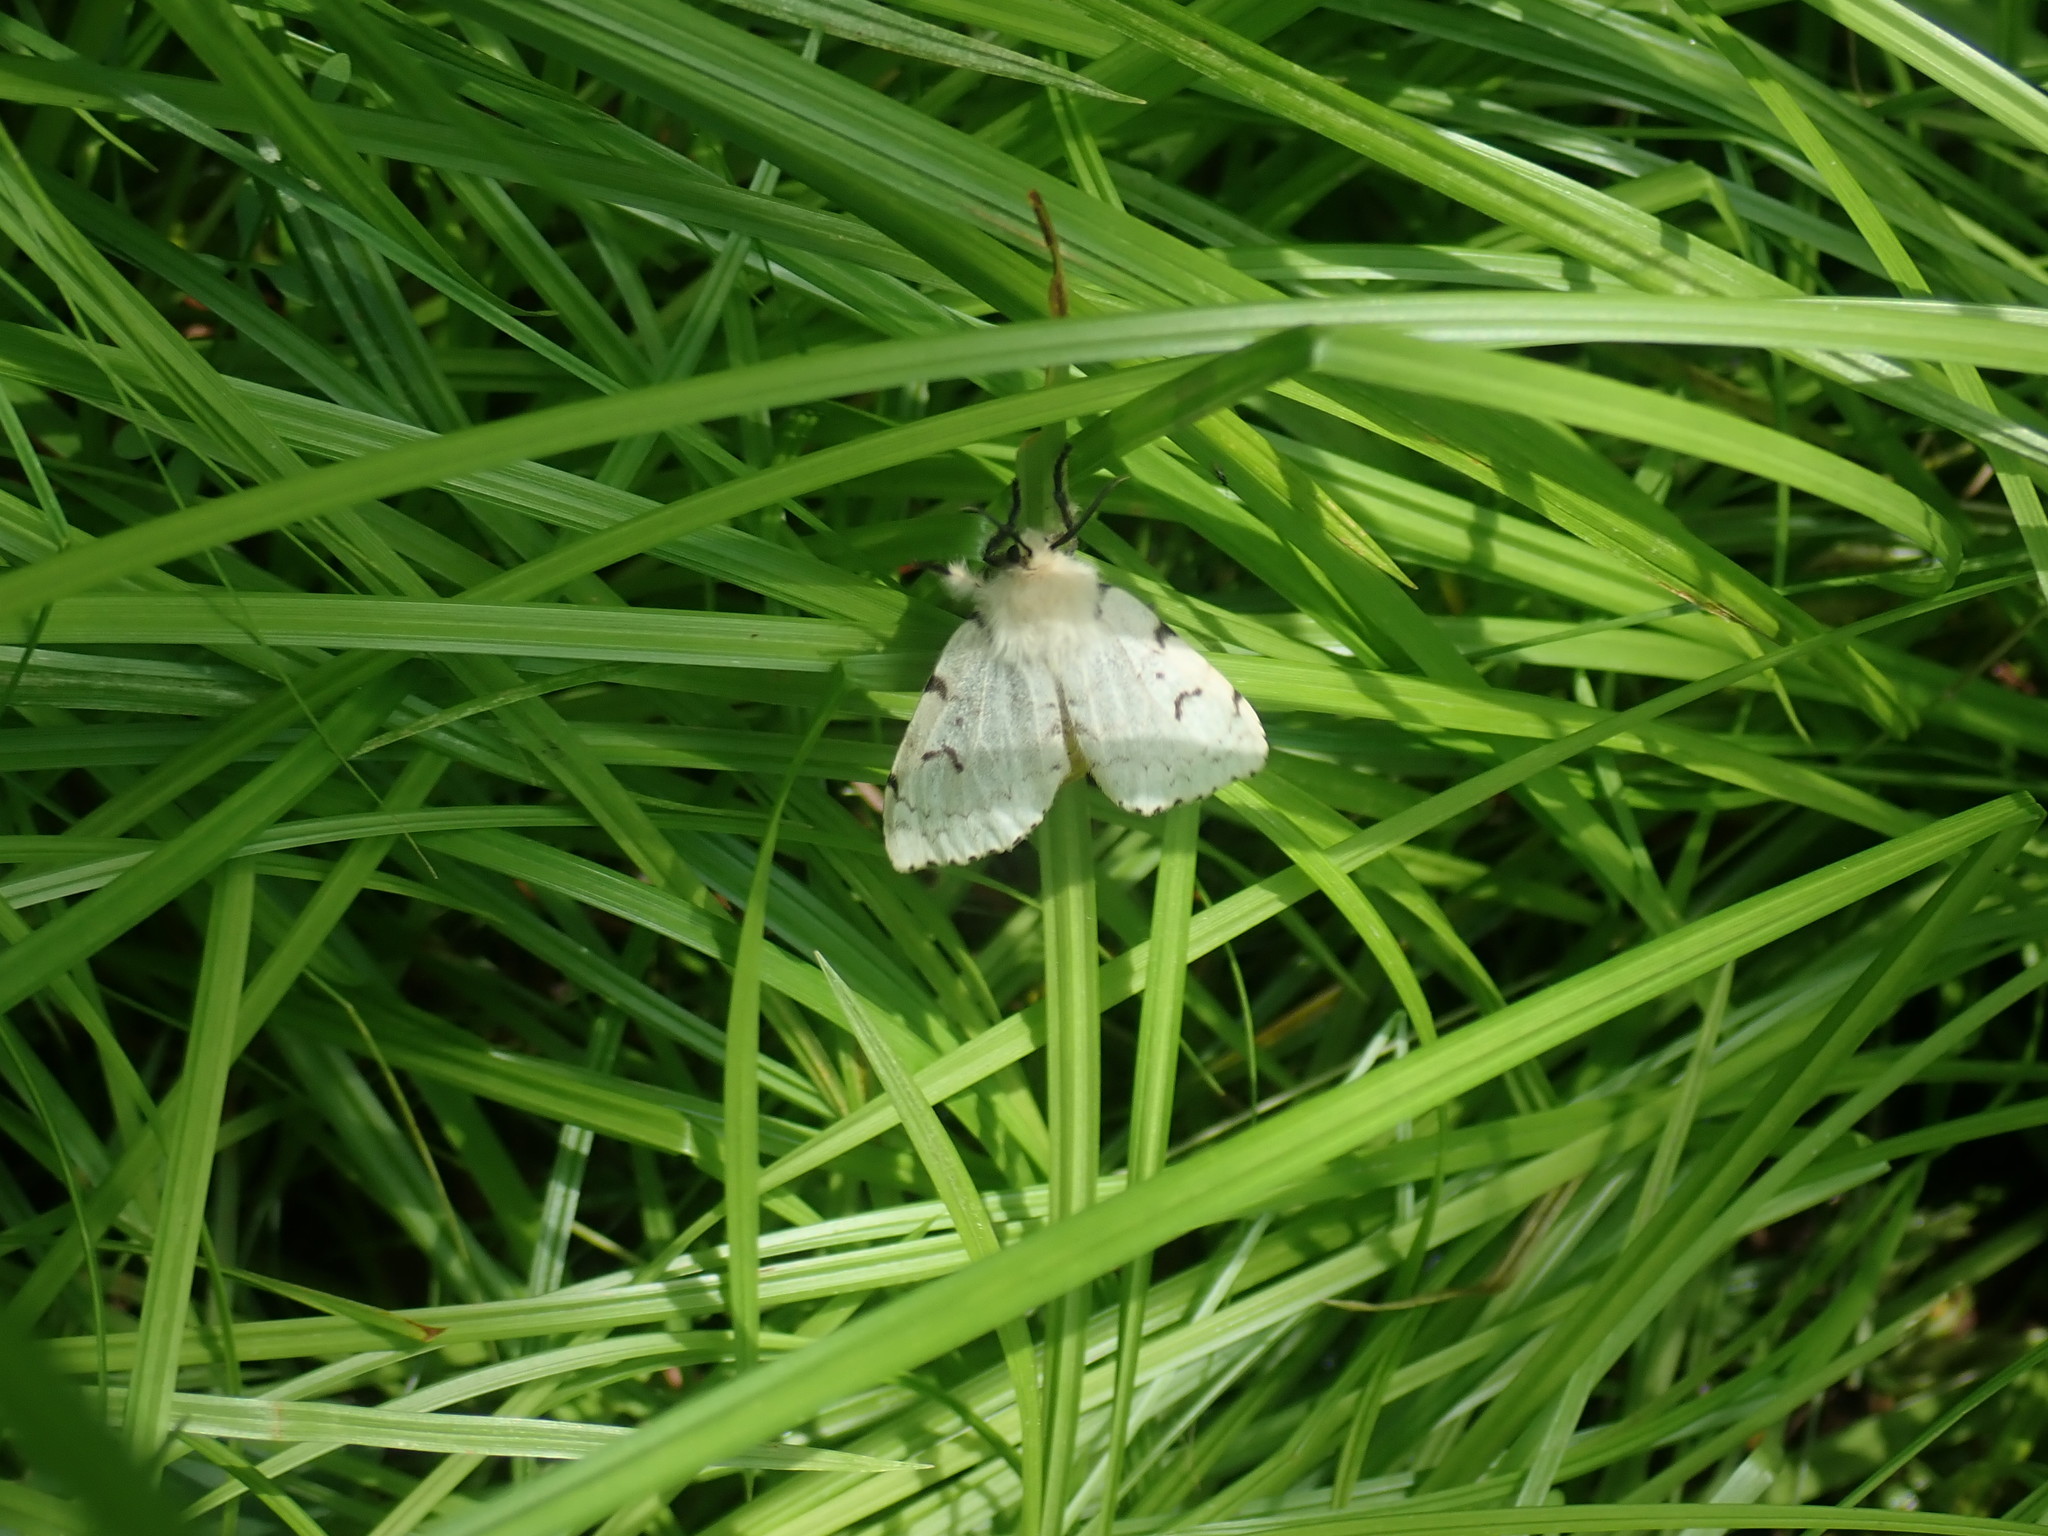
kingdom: Animalia
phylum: Arthropoda
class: Insecta
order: Lepidoptera
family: Erebidae
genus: Lymantria
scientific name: Lymantria dispar
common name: Gypsy moth
